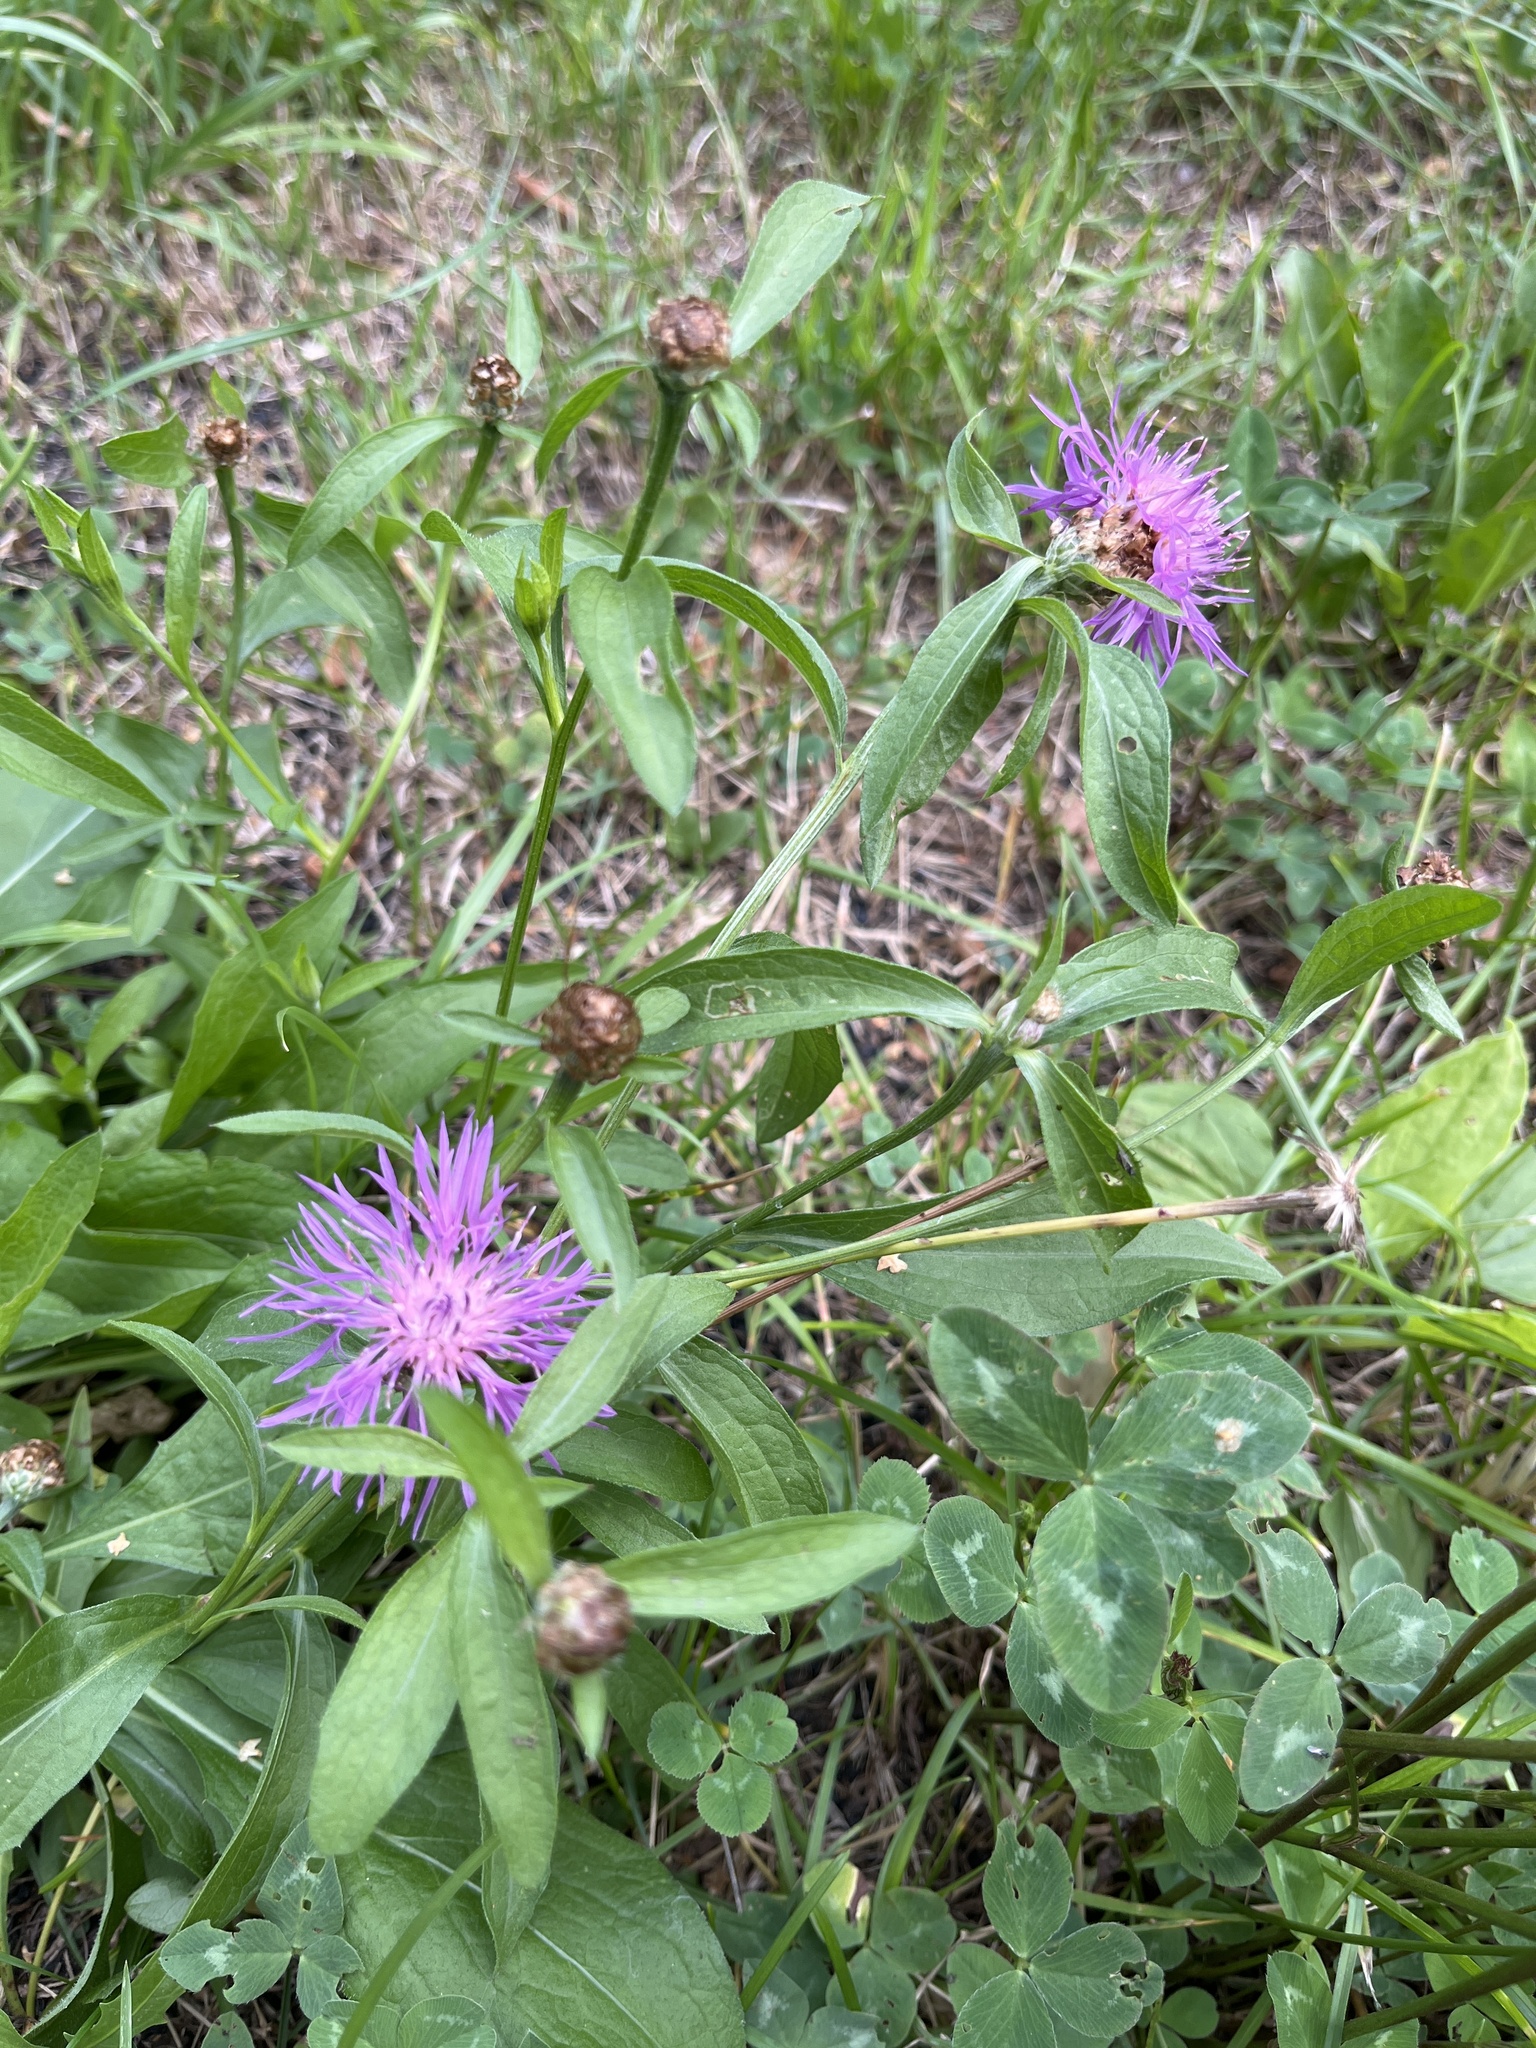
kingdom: Plantae
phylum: Tracheophyta
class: Magnoliopsida
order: Asterales
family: Asteraceae
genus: Centaurea
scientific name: Centaurea jacea
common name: Brown knapweed
